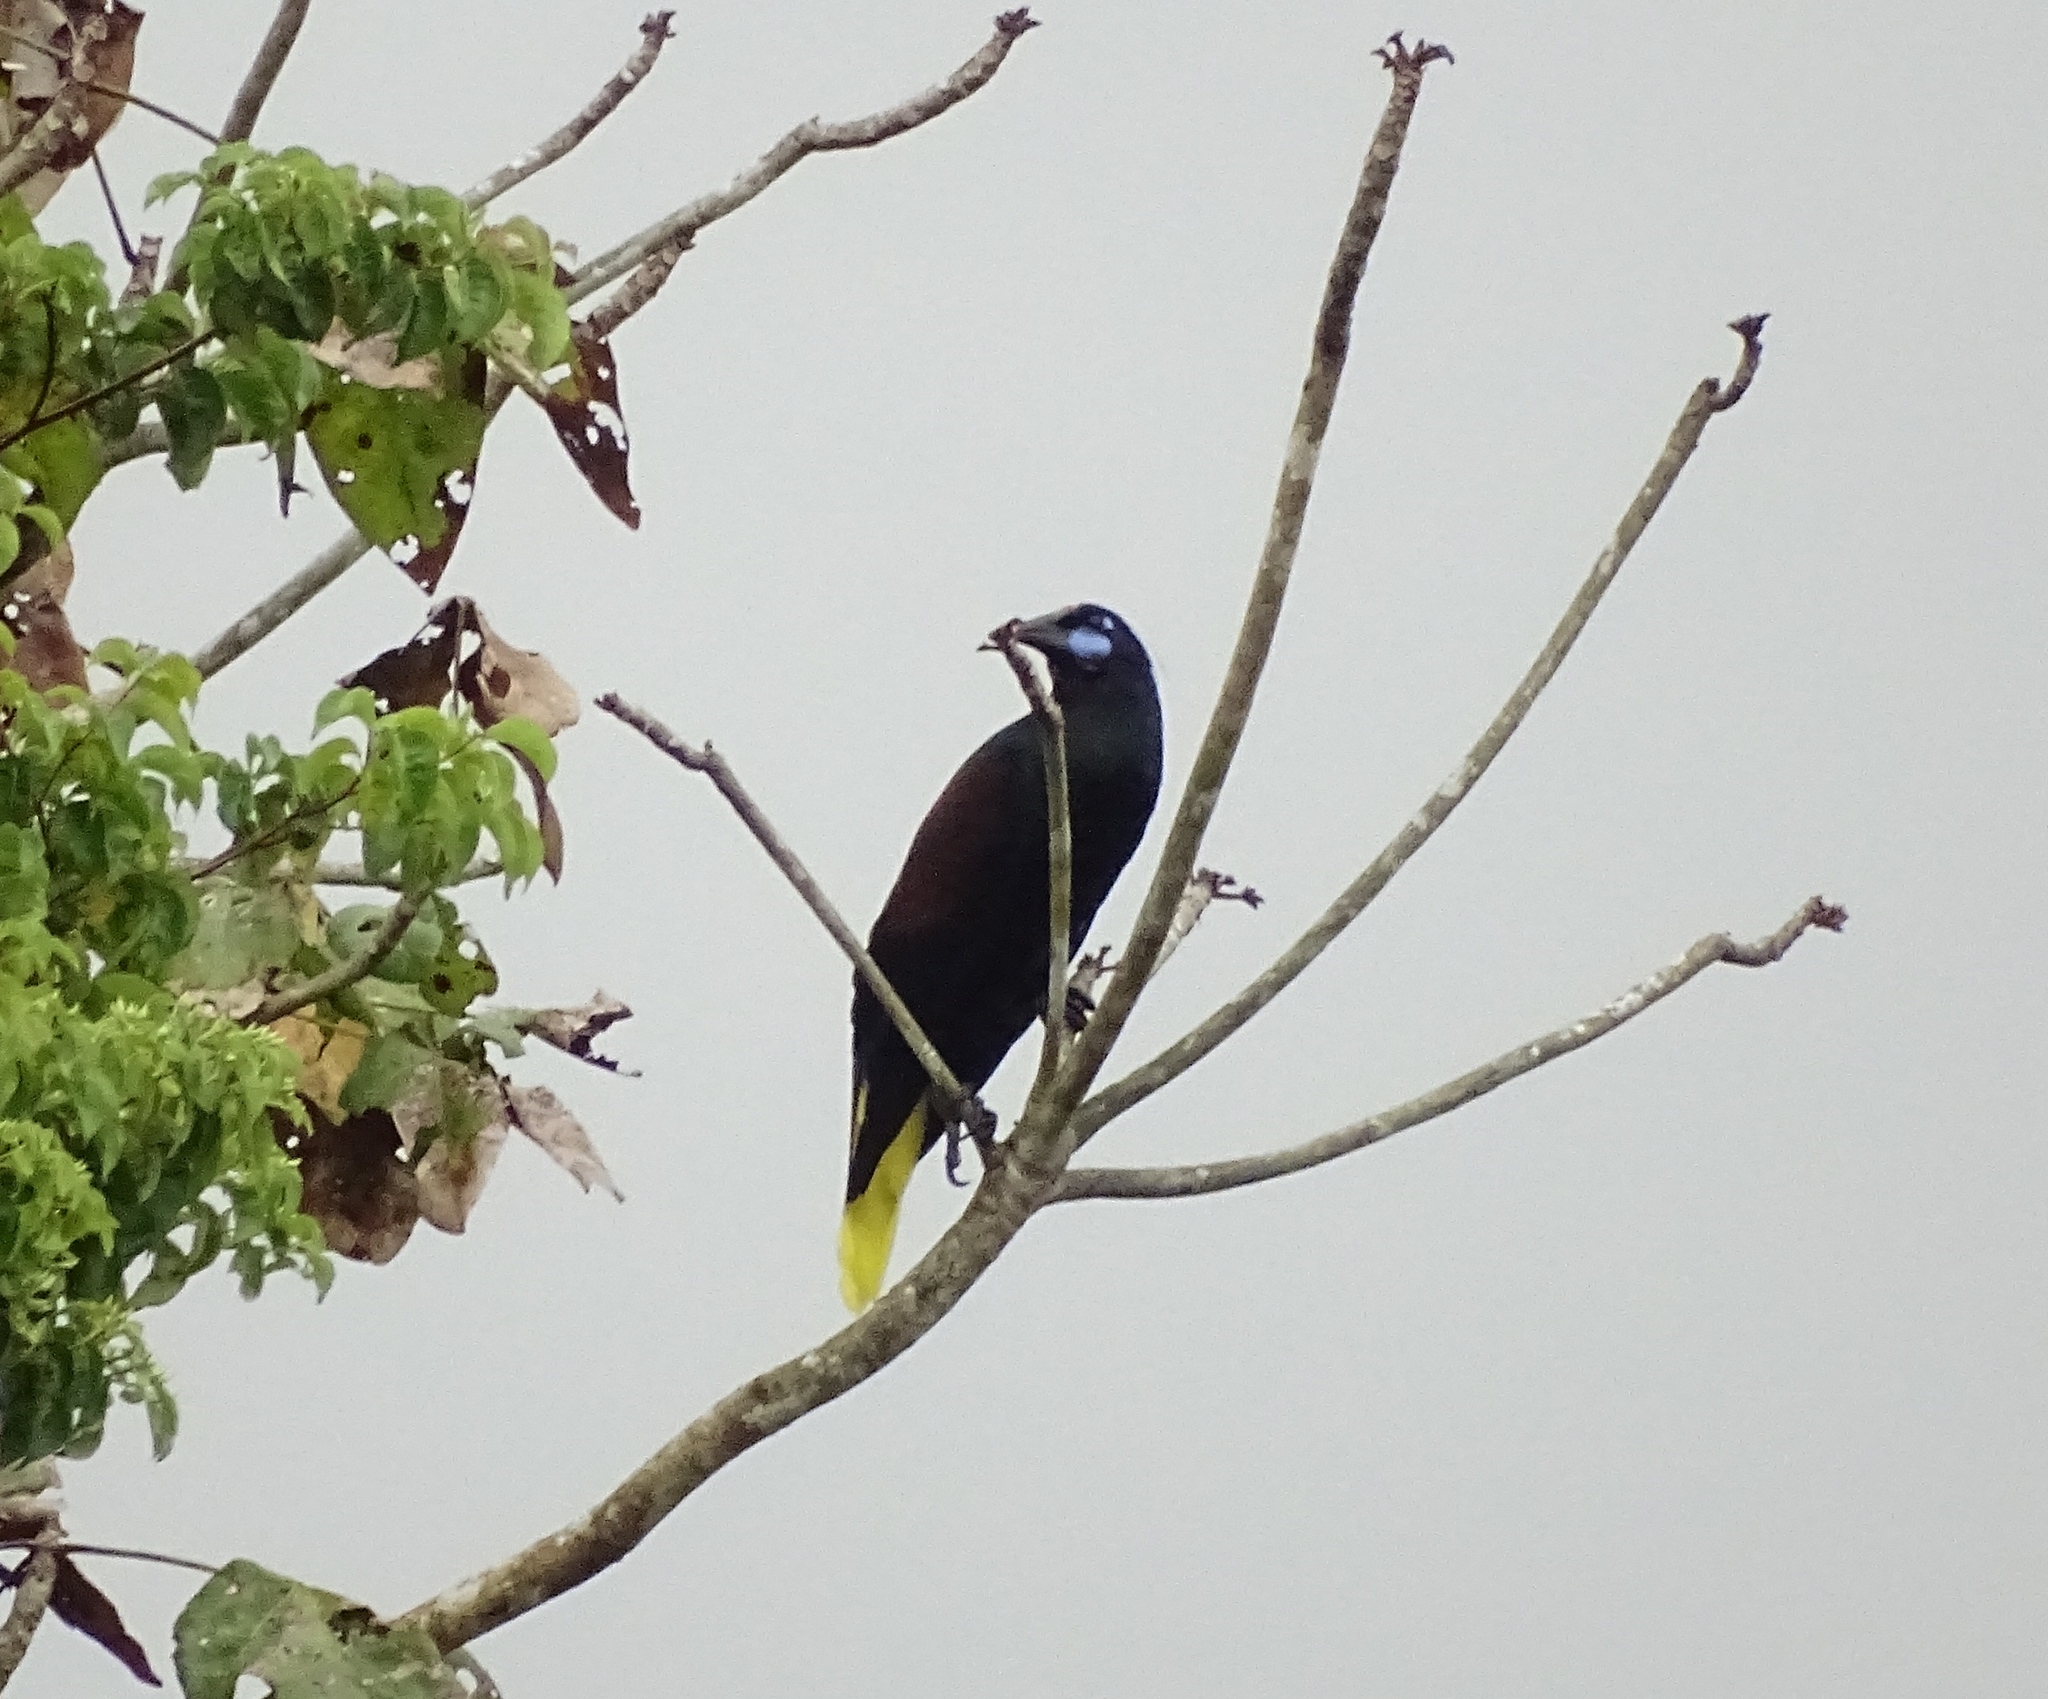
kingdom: Animalia
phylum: Chordata
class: Aves
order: Passeriformes
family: Icteridae
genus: Psarocolius
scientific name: Psarocolius guatimozinus
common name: Black oropendola
